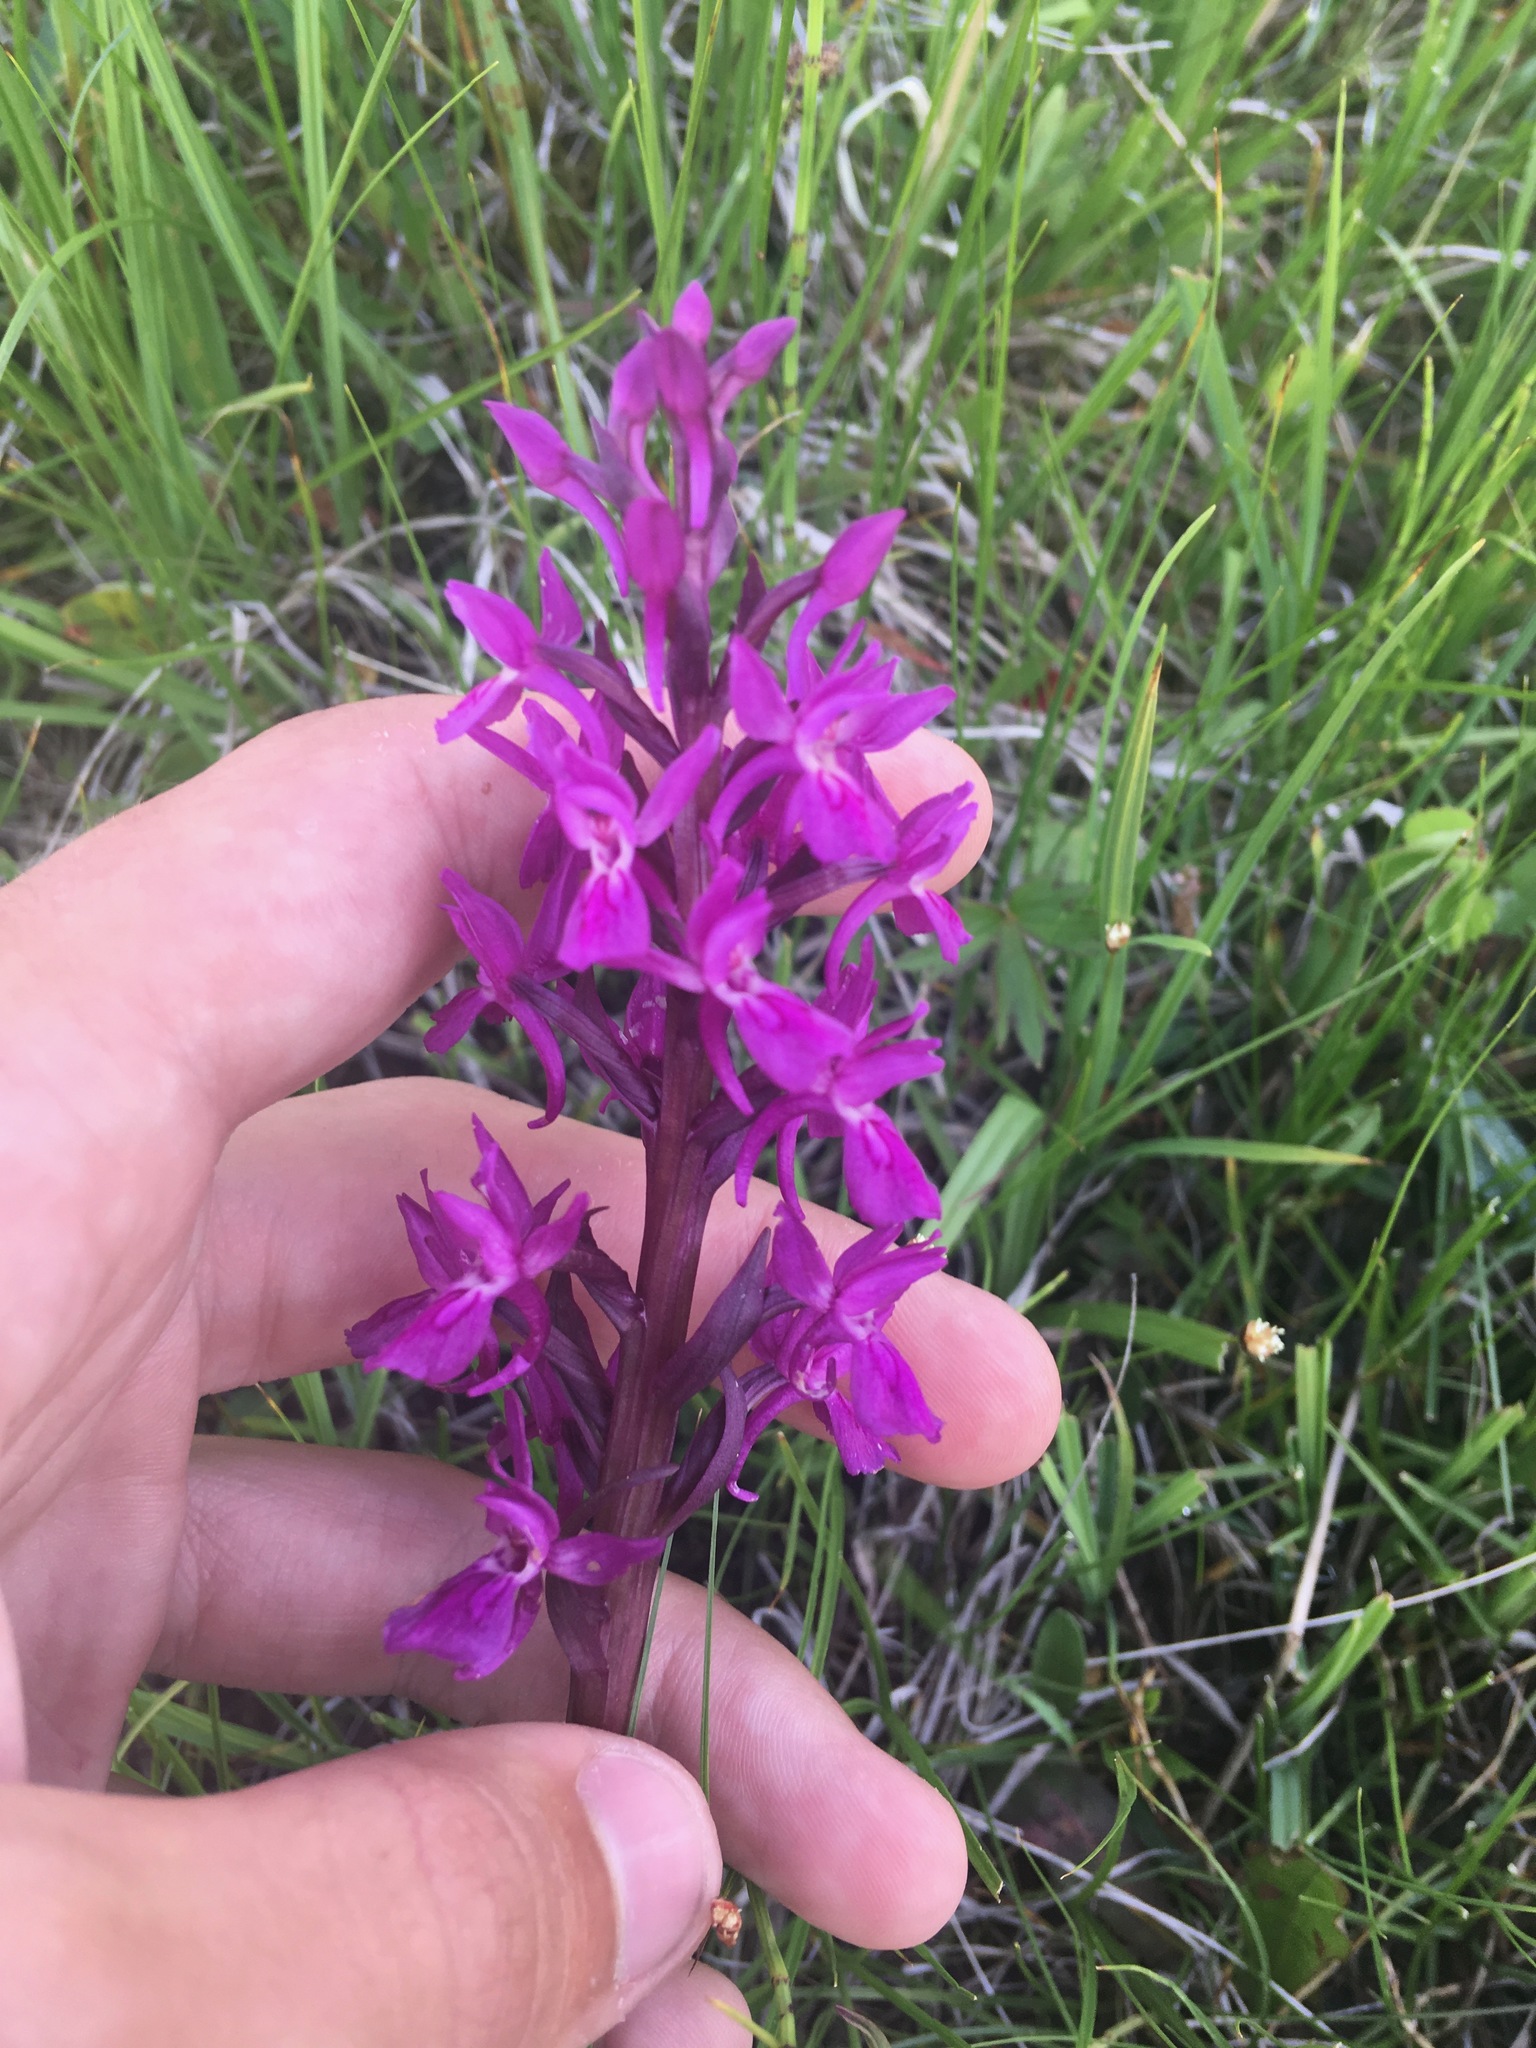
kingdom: Plantae
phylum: Tracheophyta
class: Liliopsida
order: Asparagales
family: Orchidaceae
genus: Dactylorhiza
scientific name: Dactylorhiza salina
